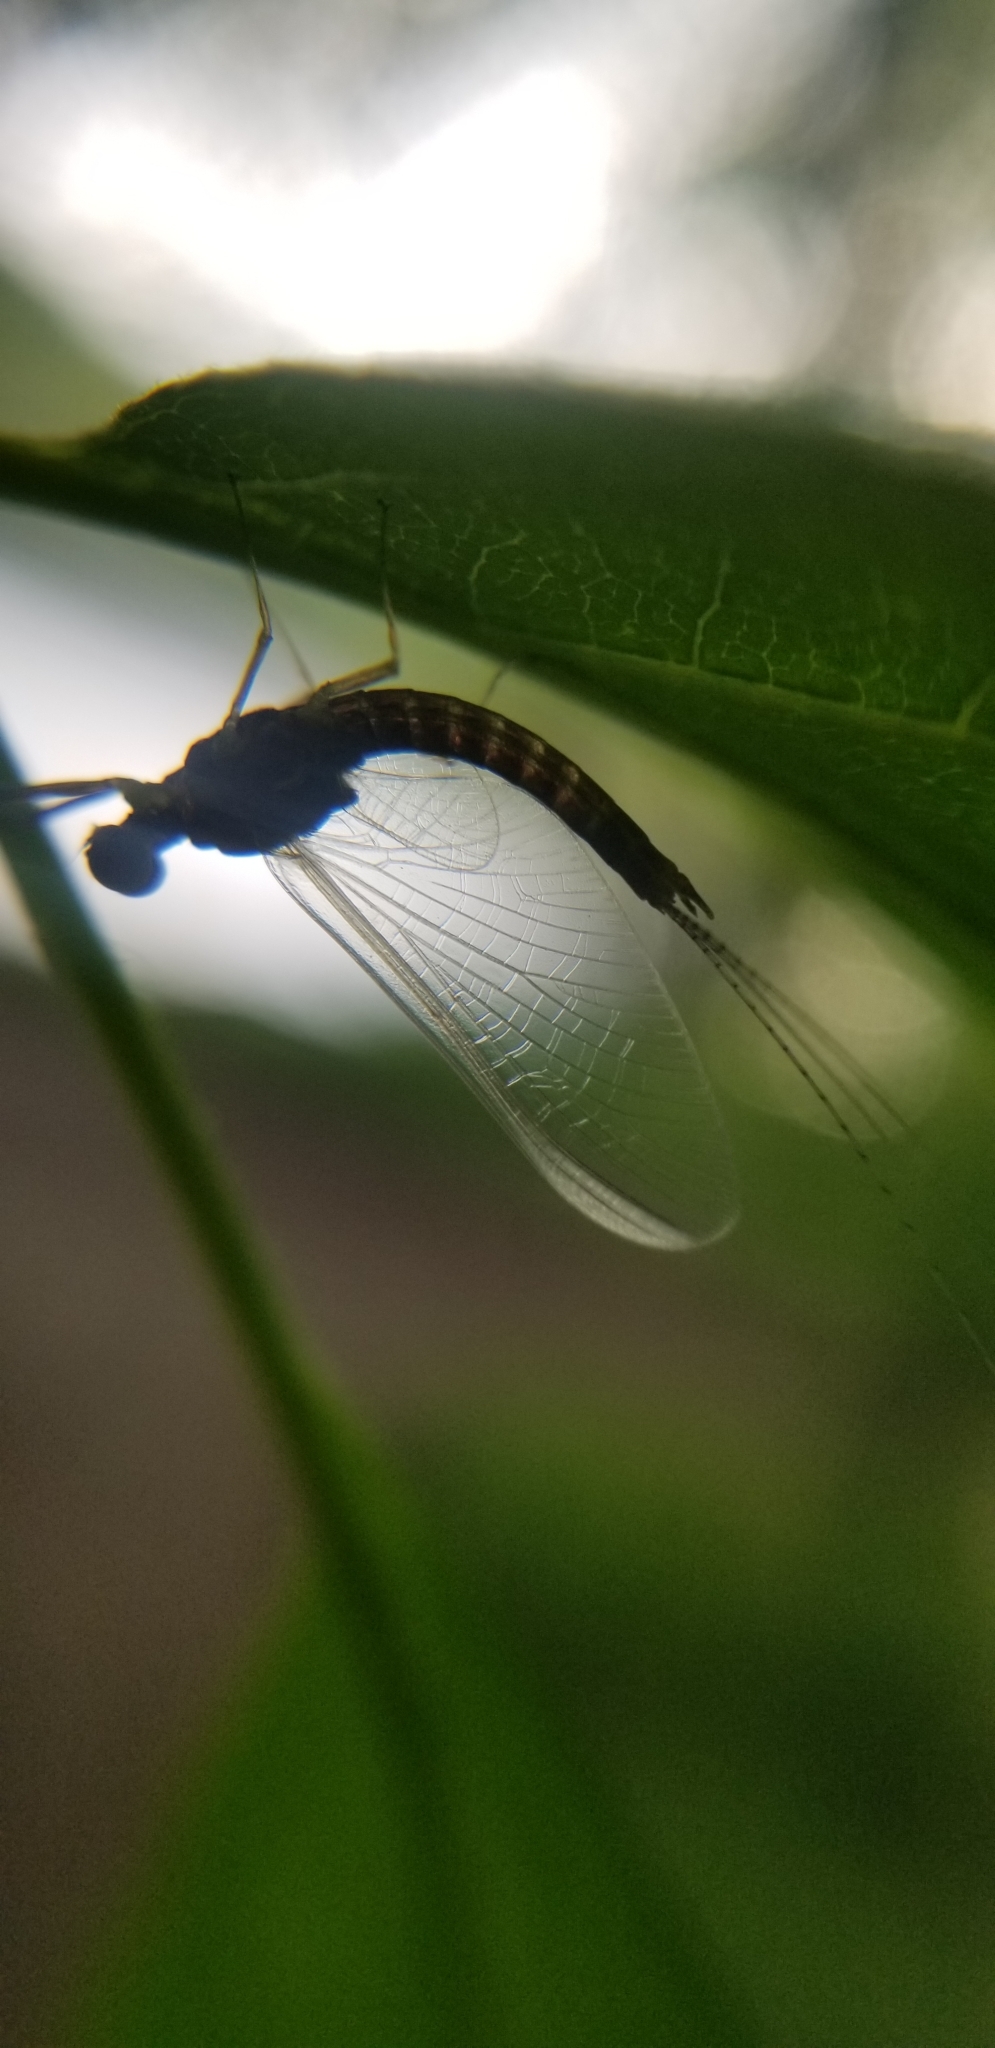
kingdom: Animalia
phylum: Arthropoda
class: Insecta
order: Ephemeroptera
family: Ephemerellidae
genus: Ephemerella
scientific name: Ephemerella needhami
